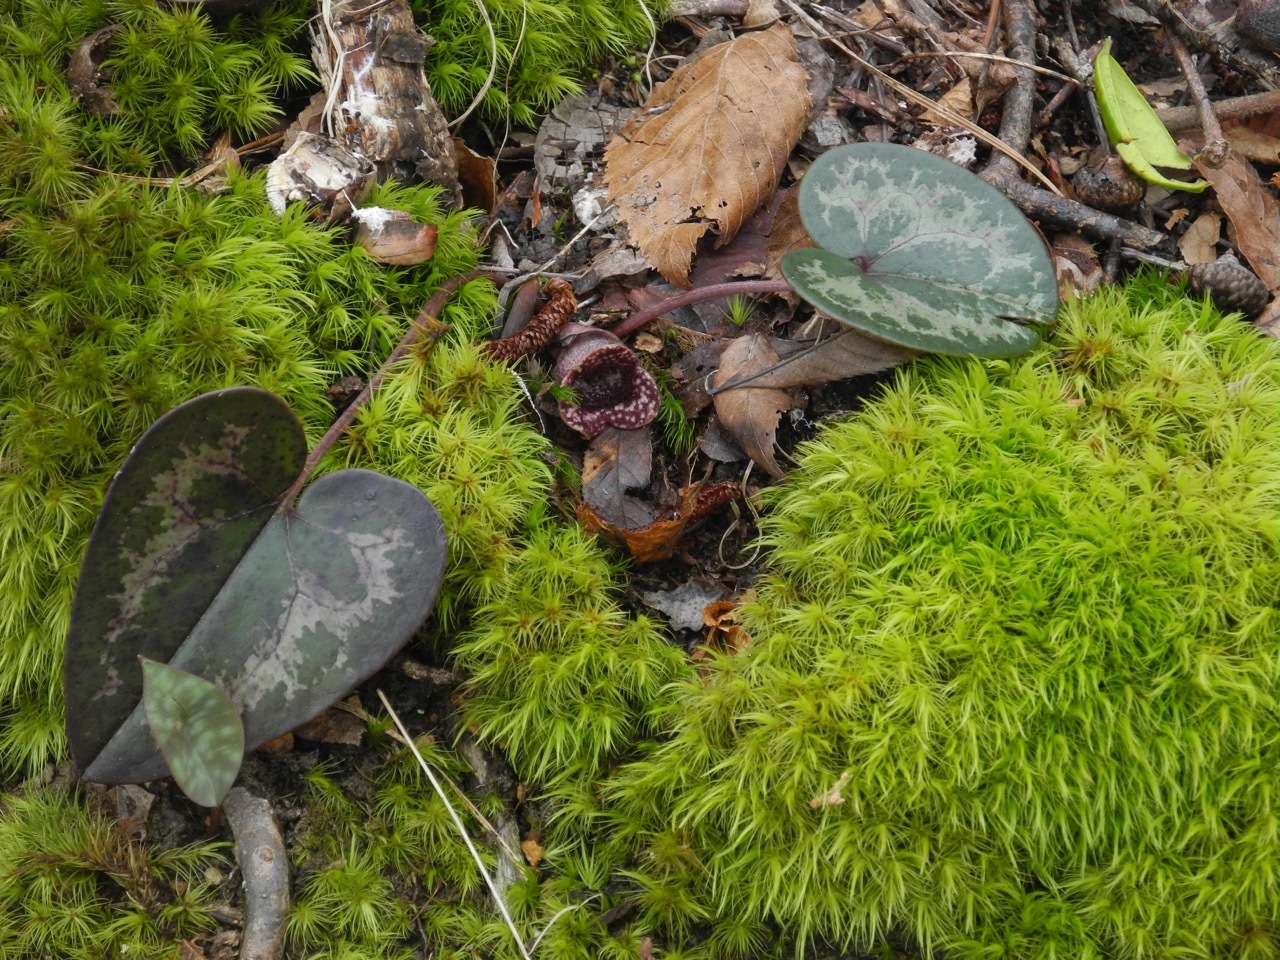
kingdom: Plantae
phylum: Tracheophyta
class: Magnoliopsida
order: Piperales
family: Aristolochiaceae
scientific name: Aristolochiaceae
